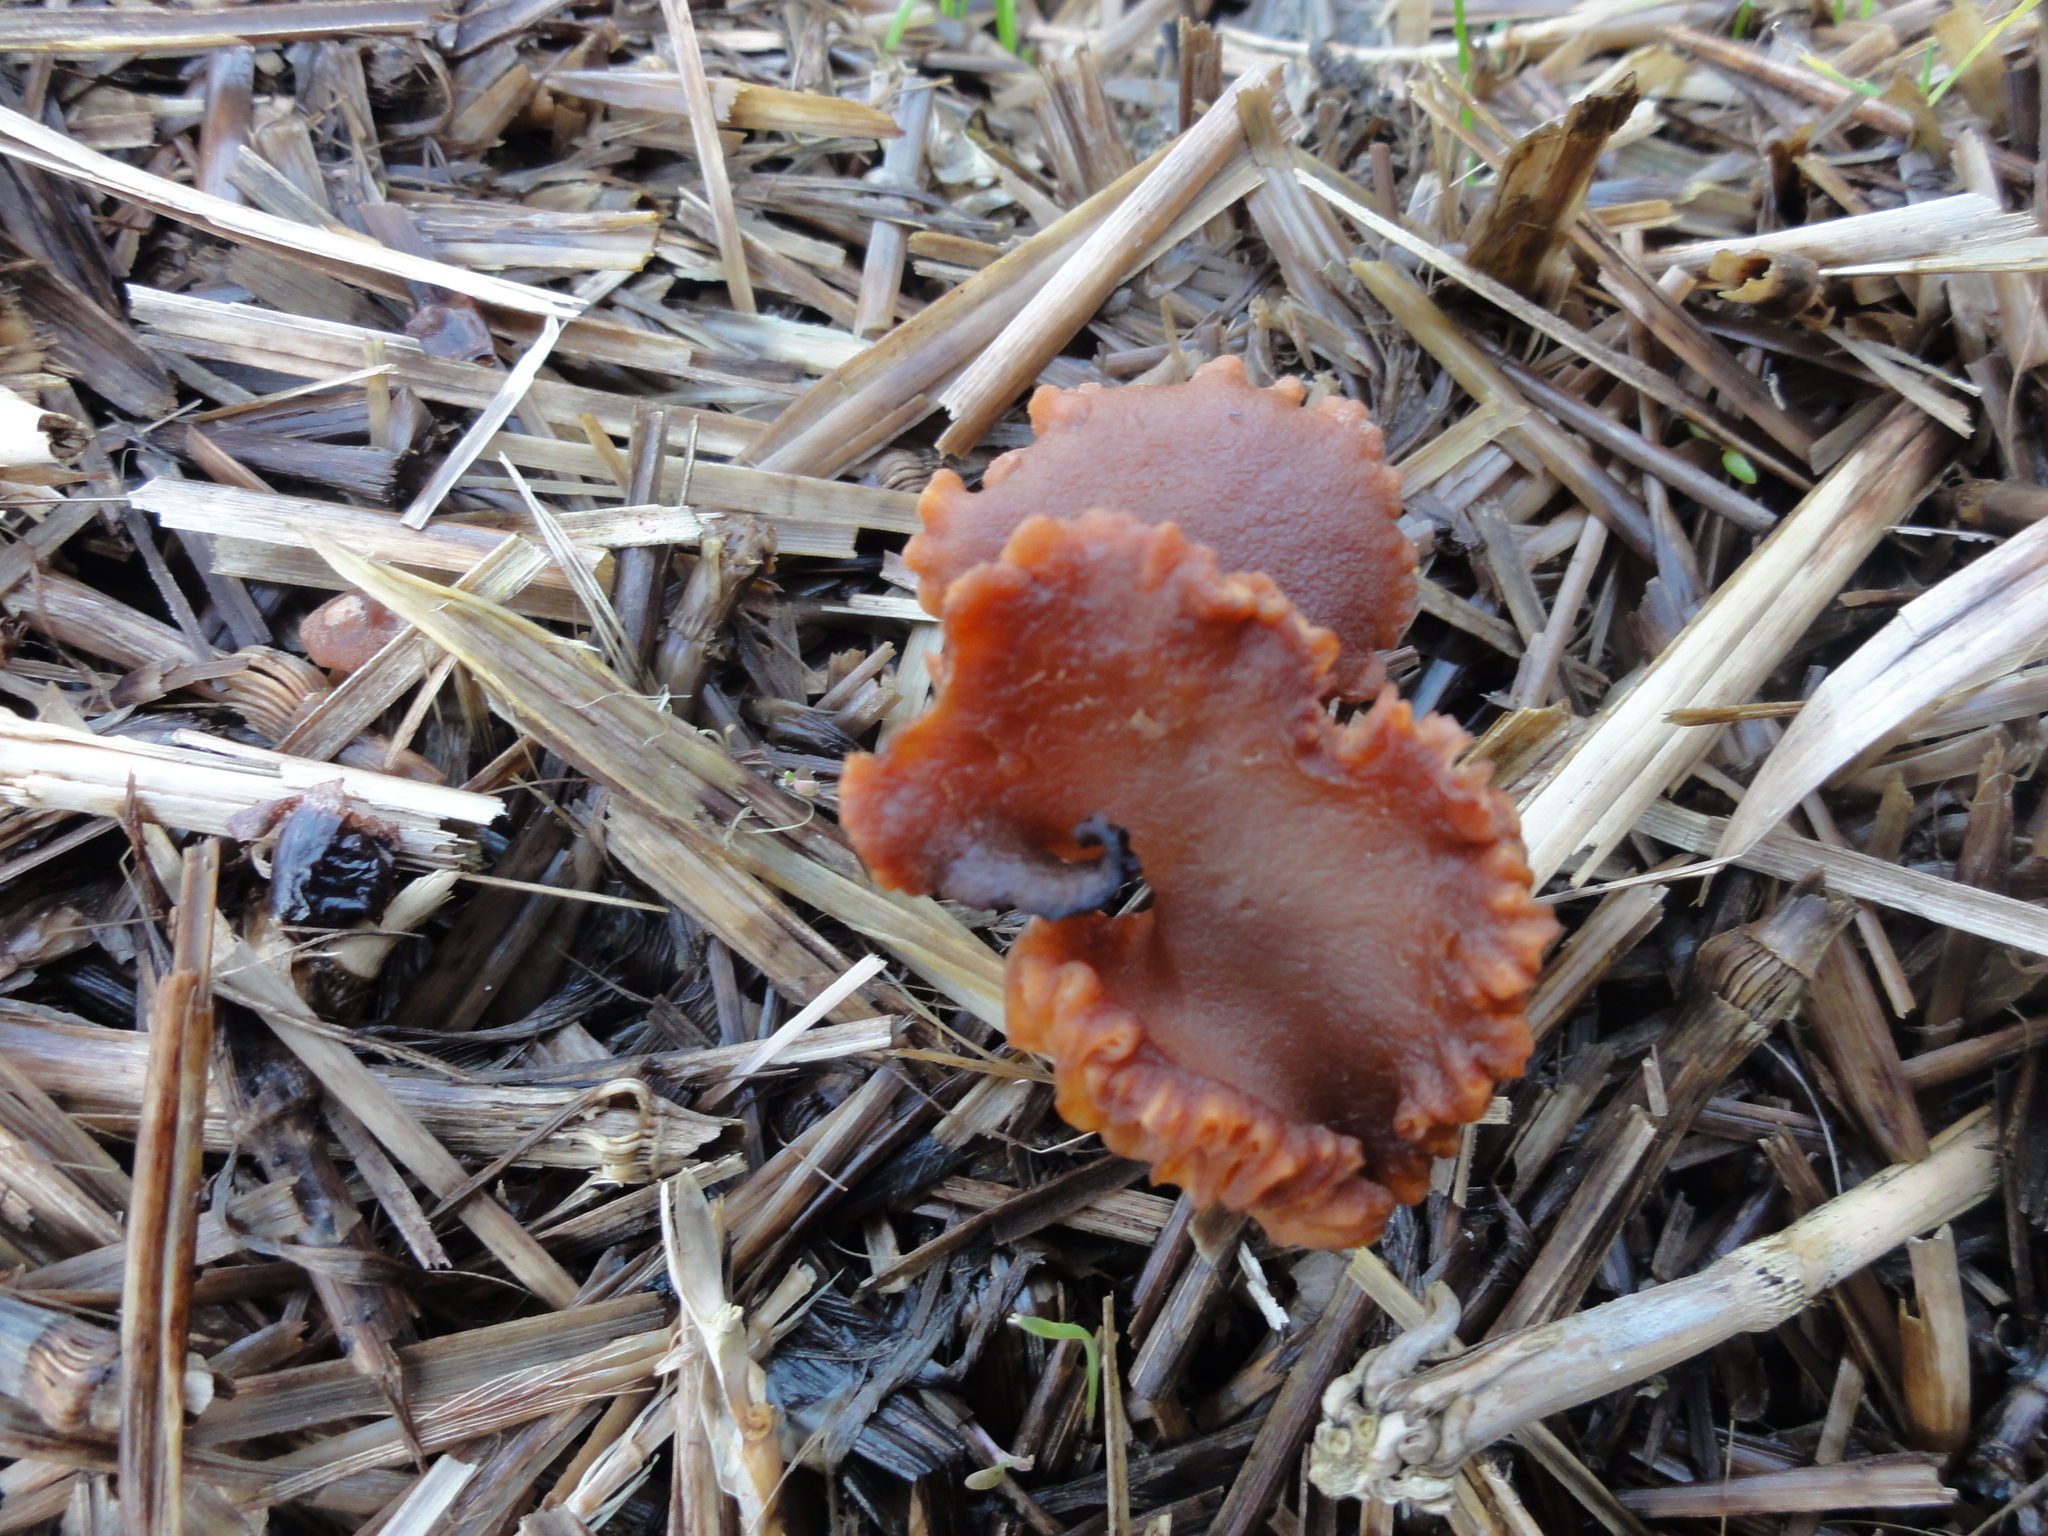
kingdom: Fungi
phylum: Basidiomycota
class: Agaricomycetes
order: Agaricales
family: Hydnangiaceae
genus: Laccaria
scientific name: Laccaria laccata
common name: Deceiver
